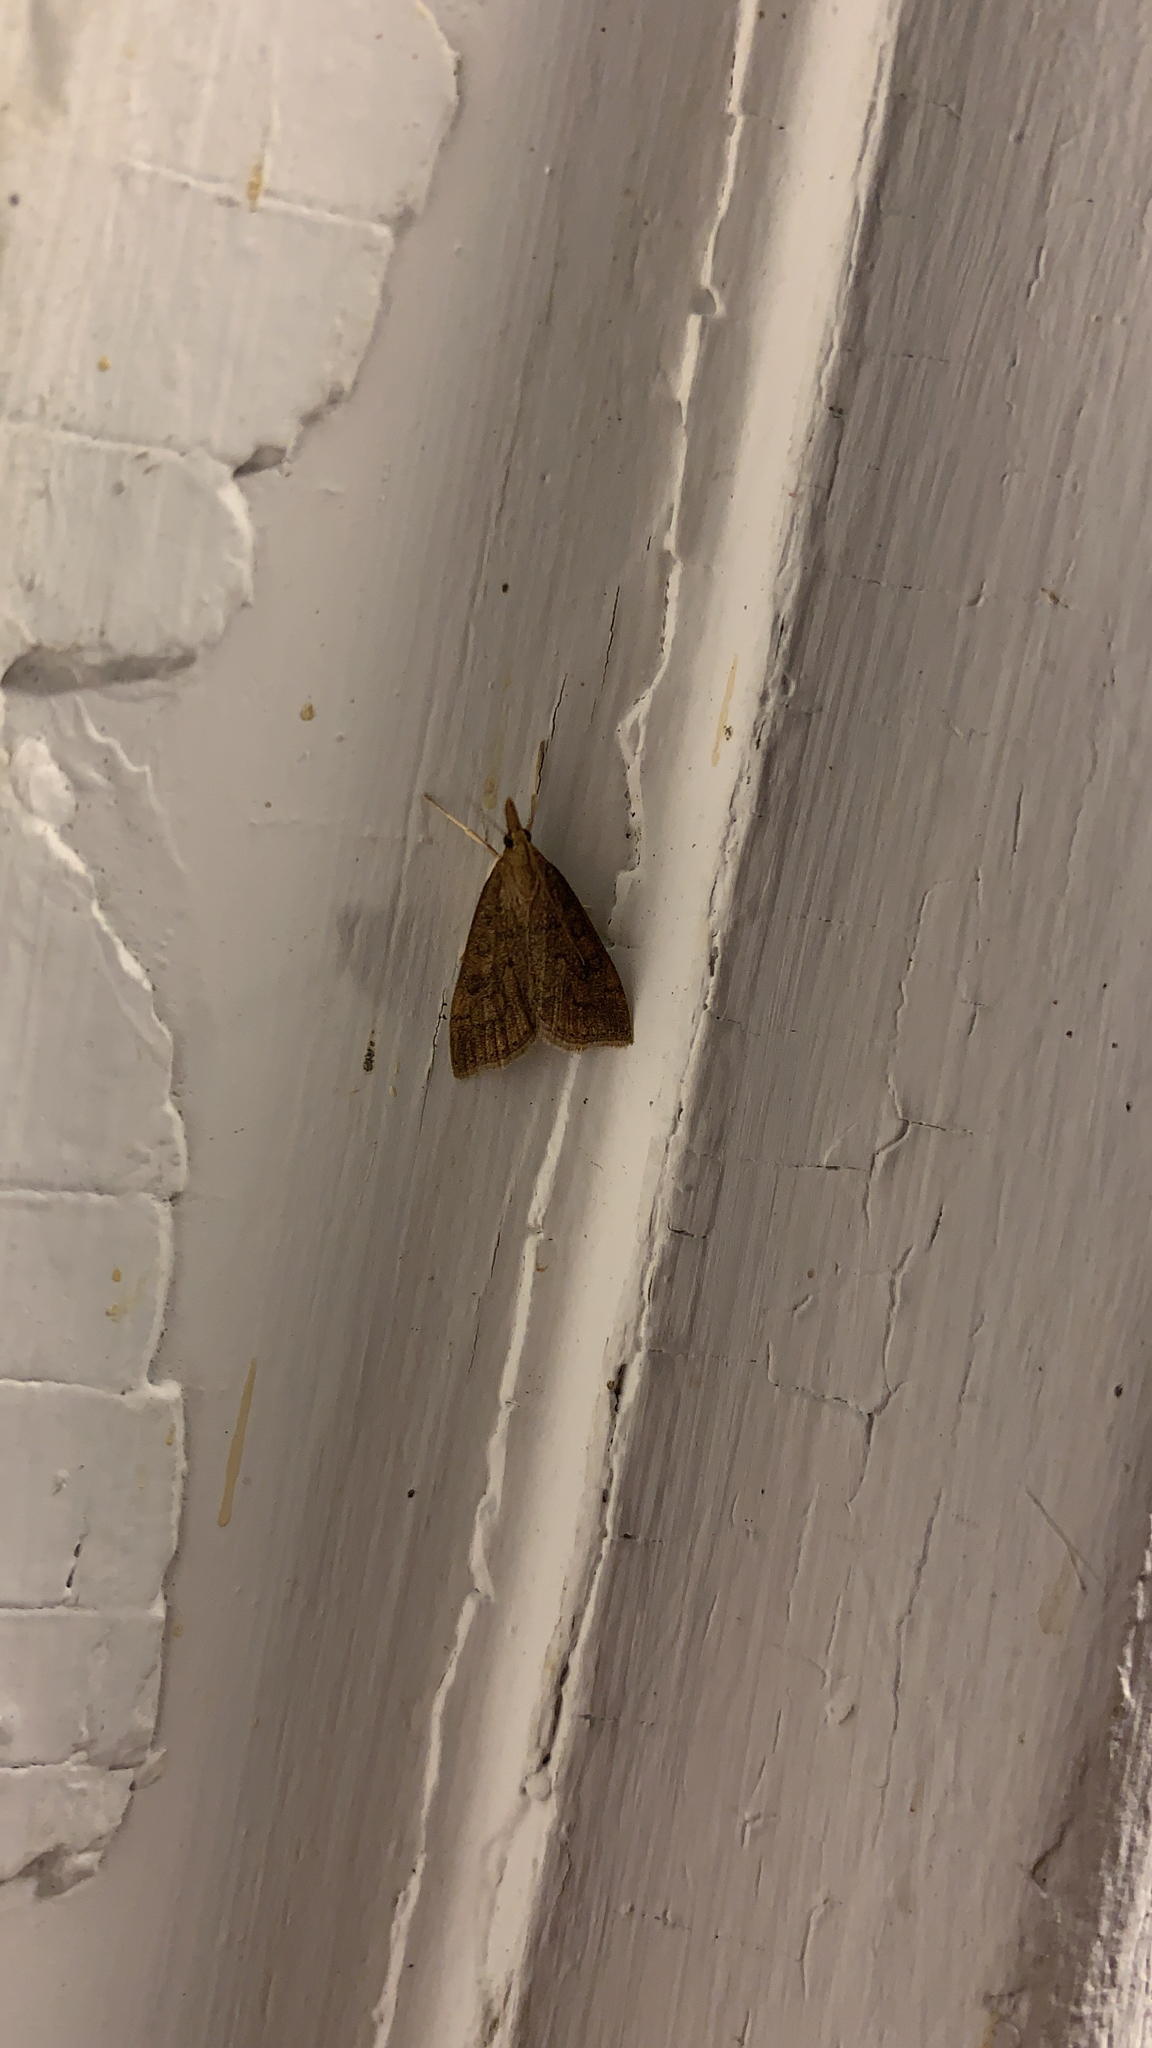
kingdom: Animalia
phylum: Arthropoda
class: Insecta
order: Lepidoptera
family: Crambidae
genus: Udea
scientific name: Udea rubigalis
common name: Celery leaftier moth
